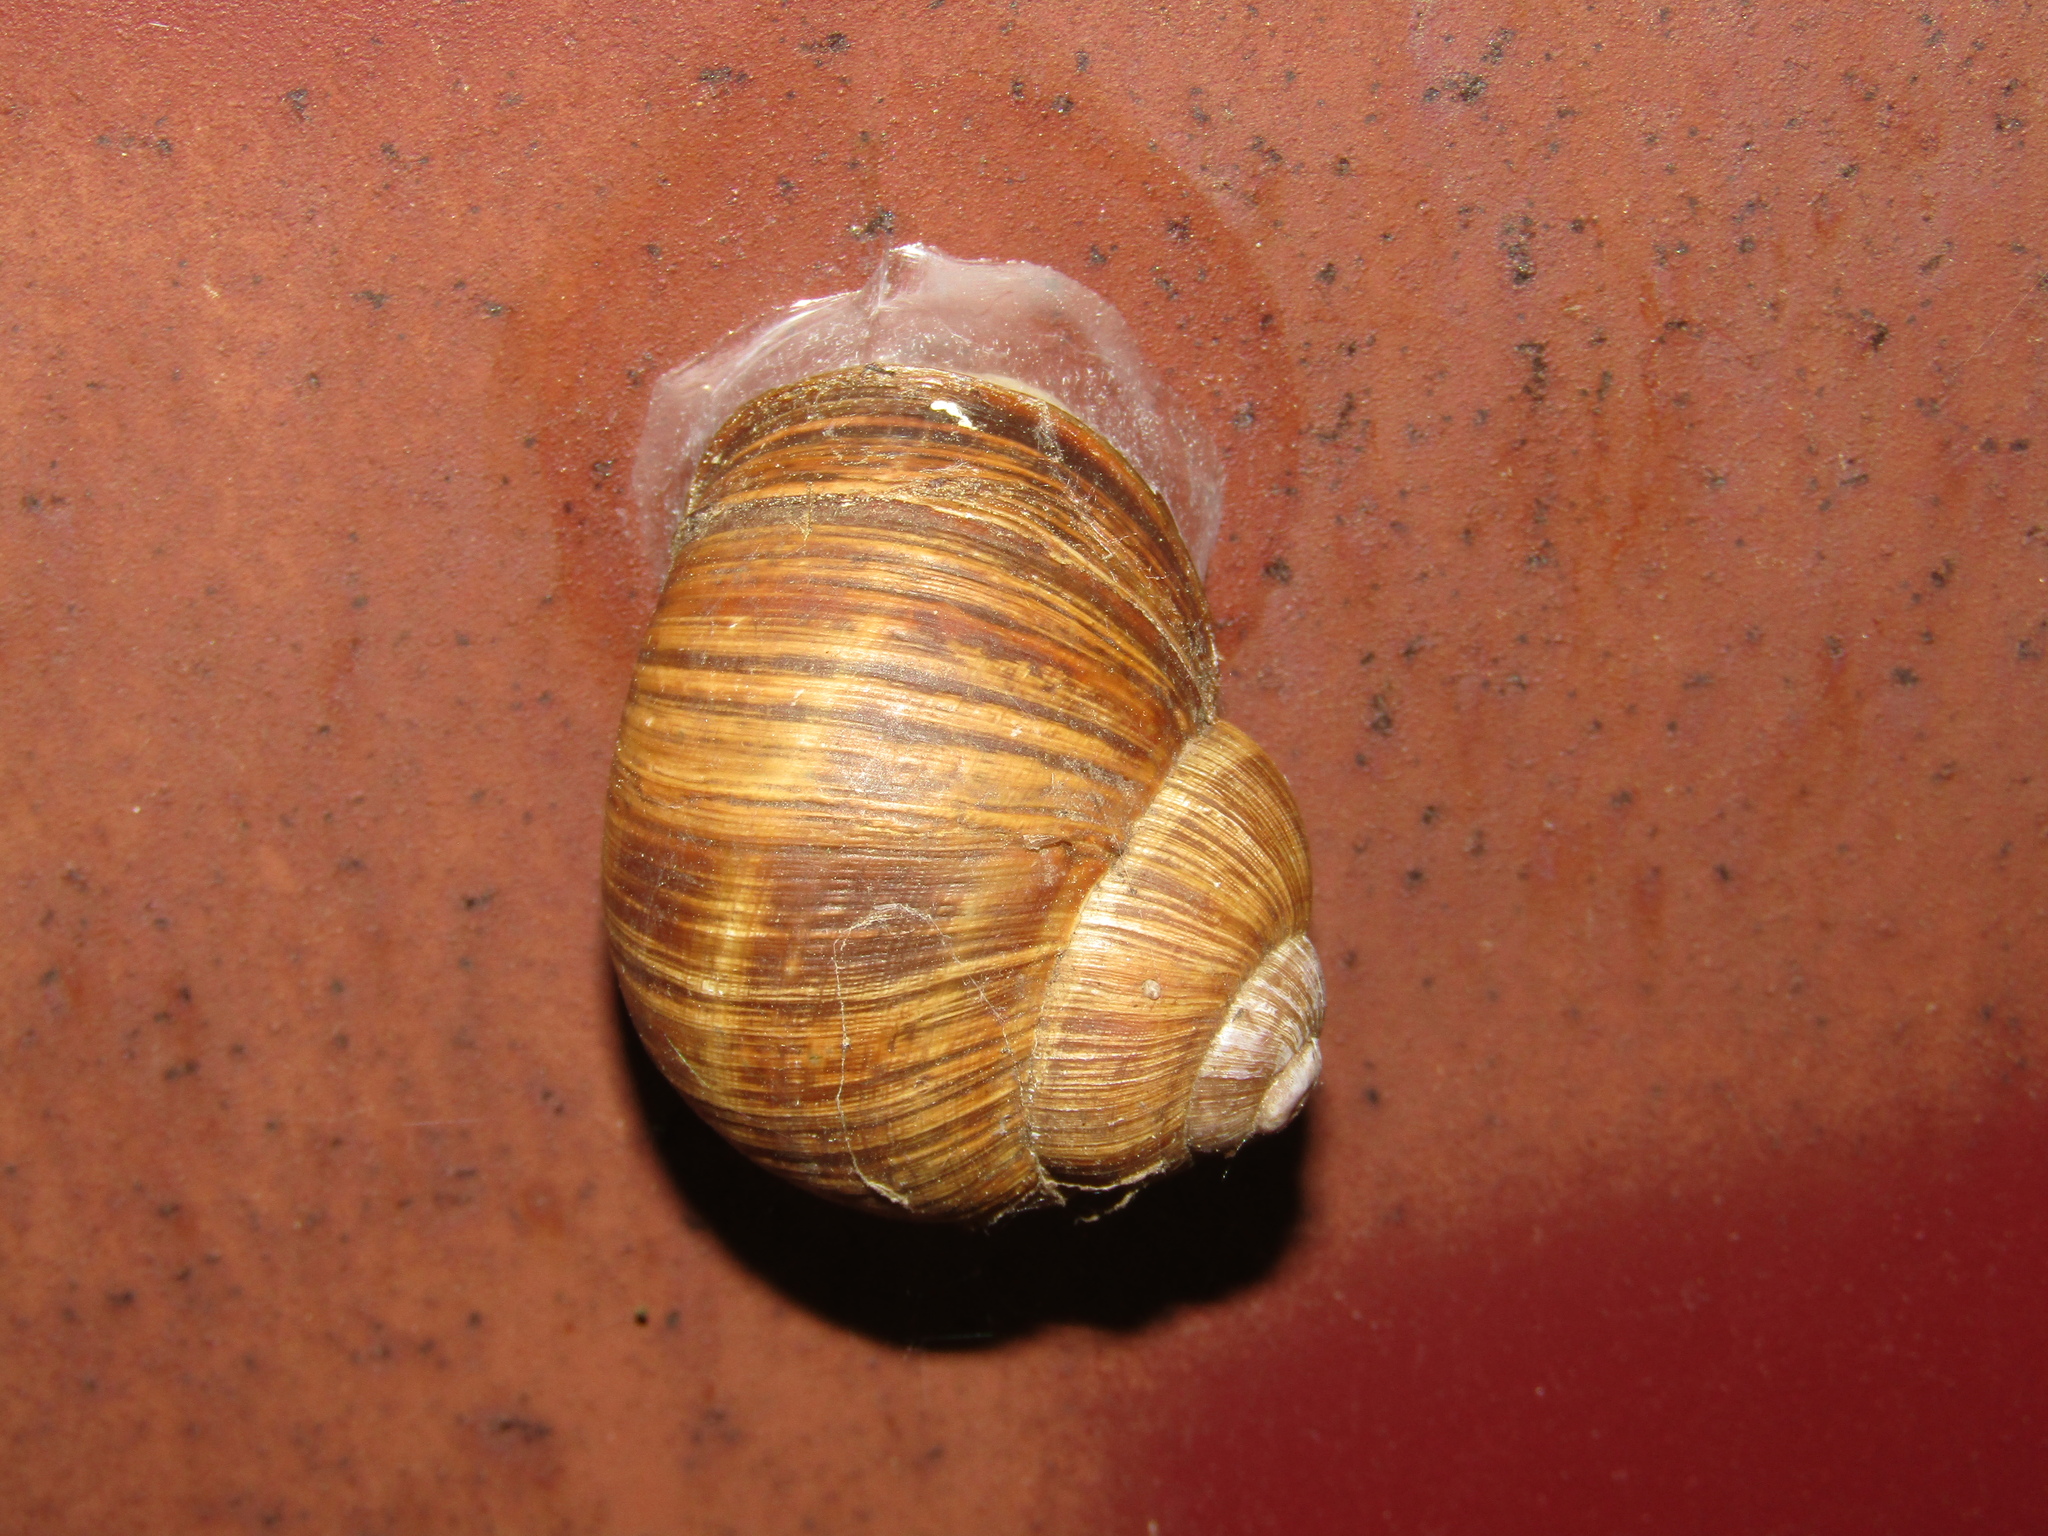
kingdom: Animalia
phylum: Mollusca
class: Gastropoda
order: Stylommatophora
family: Helicidae
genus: Helix
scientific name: Helix pomatia
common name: Roman snail
